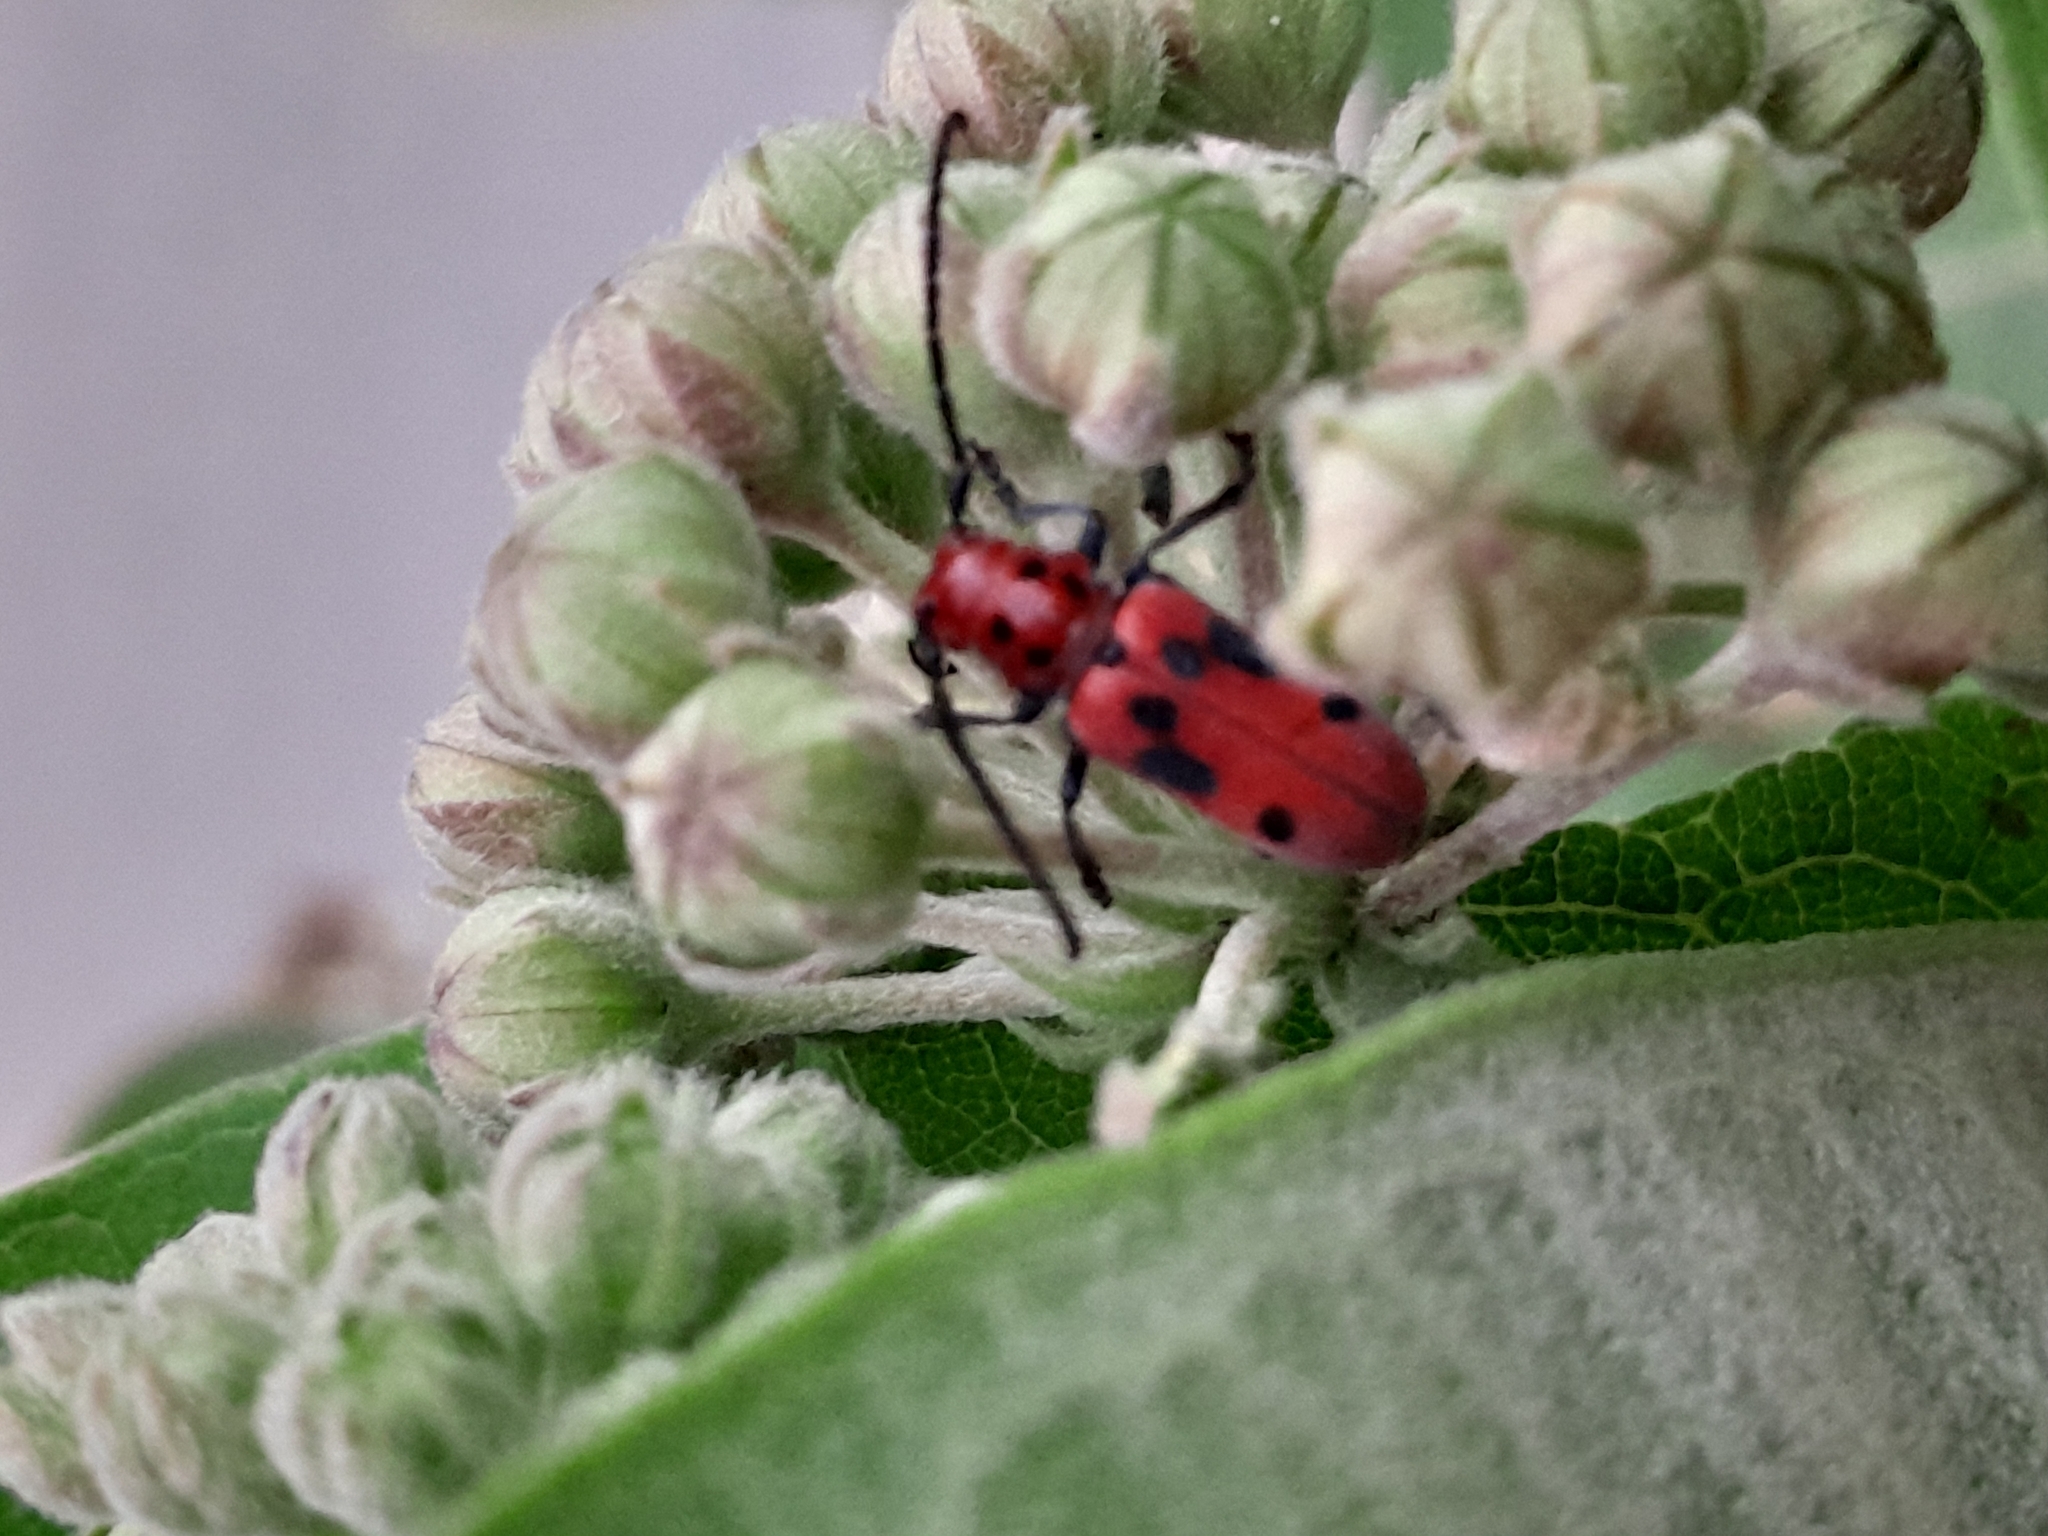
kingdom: Animalia
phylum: Arthropoda
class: Insecta
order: Coleoptera
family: Cerambycidae
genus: Tetraopes
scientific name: Tetraopes tetrophthalmus
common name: Red milkweed beetle
